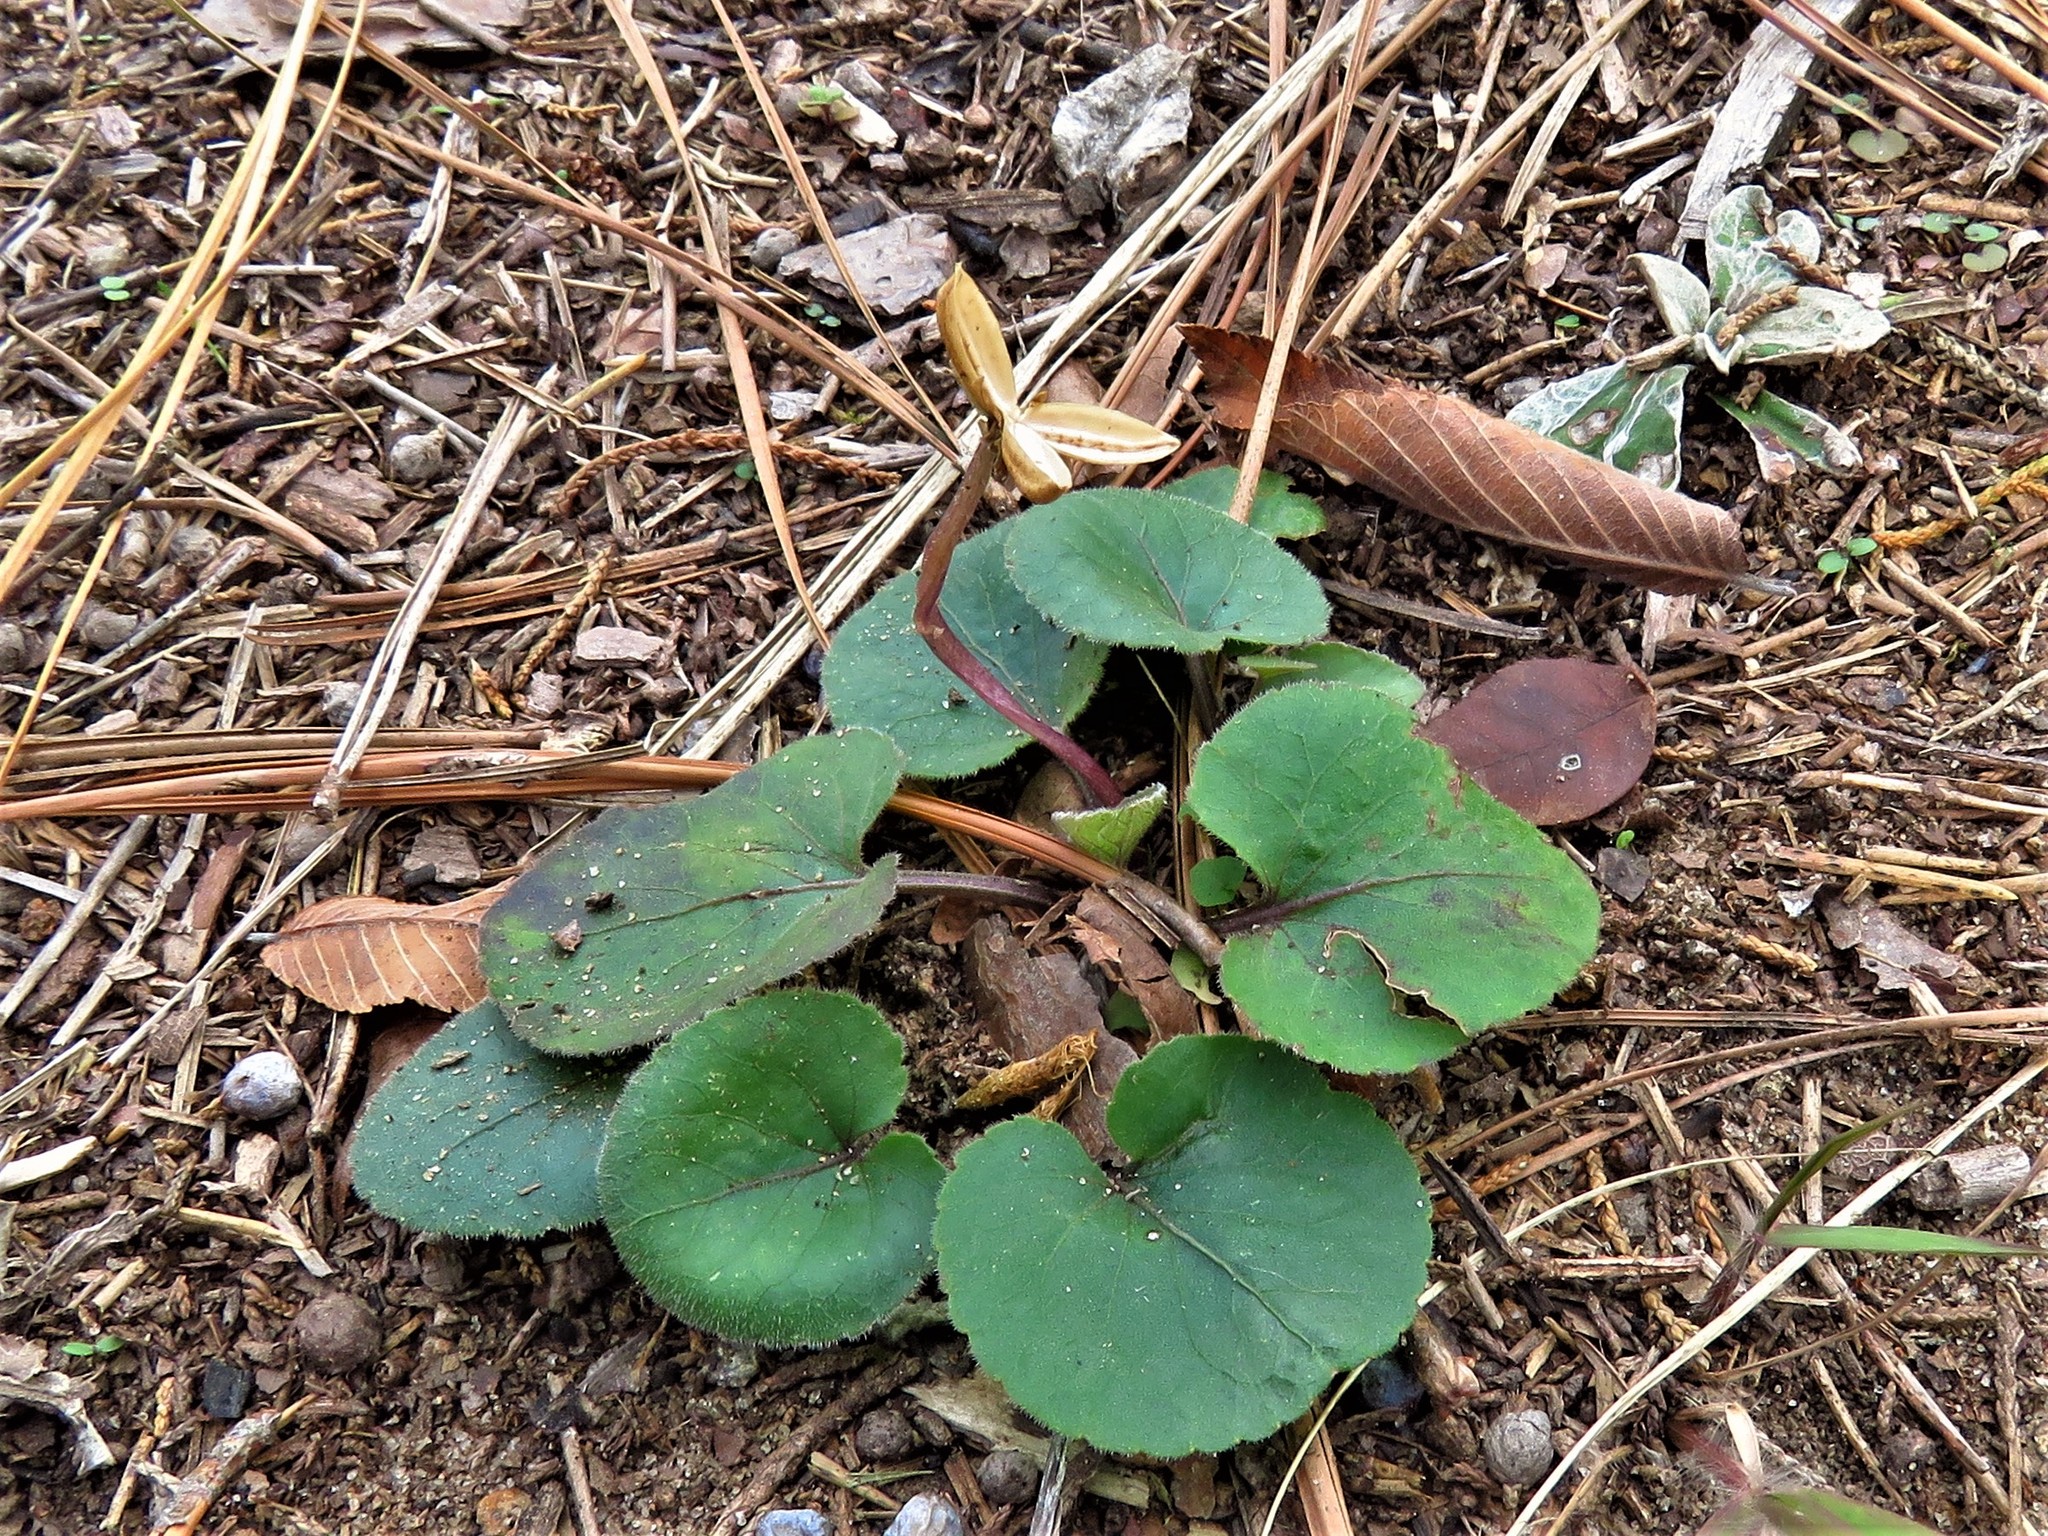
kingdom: Plantae
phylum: Tracheophyta
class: Magnoliopsida
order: Malpighiales
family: Violaceae
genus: Viola
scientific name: Viola villosa
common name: Carolina violet
